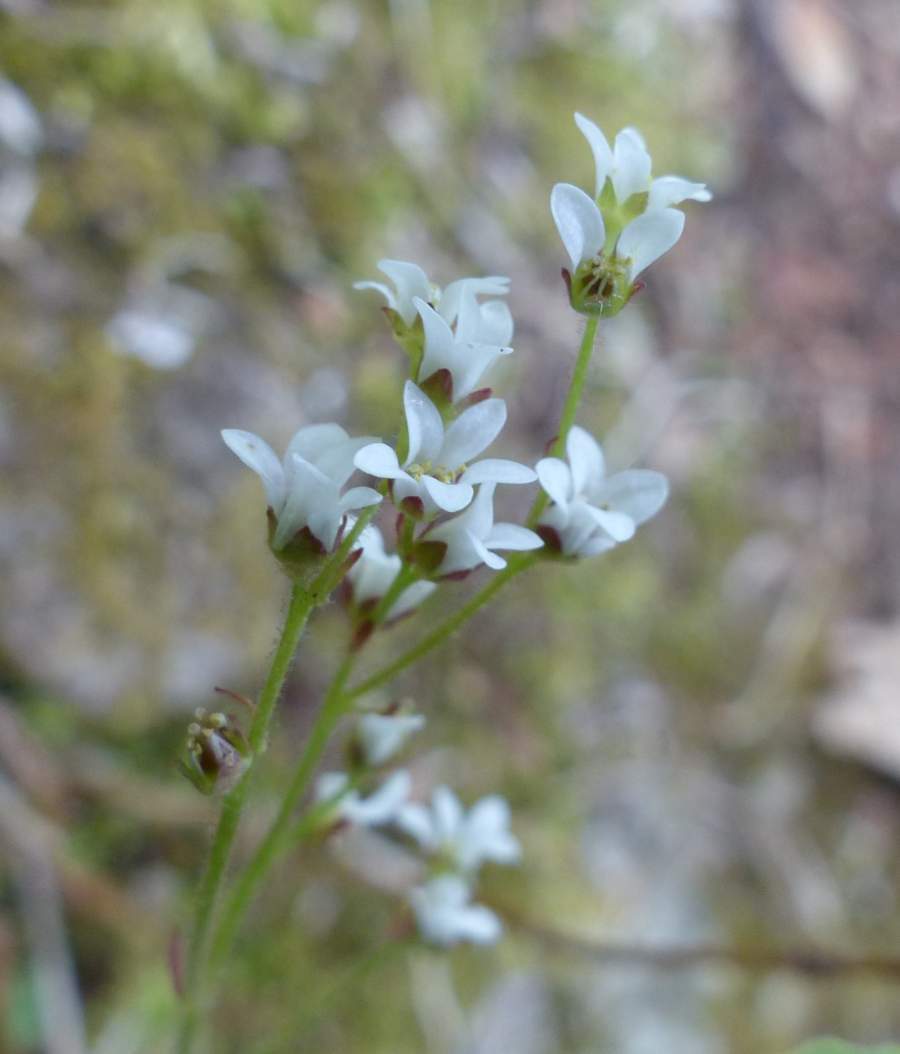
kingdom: Plantae
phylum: Tracheophyta
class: Magnoliopsida
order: Saxifragales
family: Saxifragaceae
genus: Micranthes
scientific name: Micranthes virginiensis
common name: Early saxifrage
